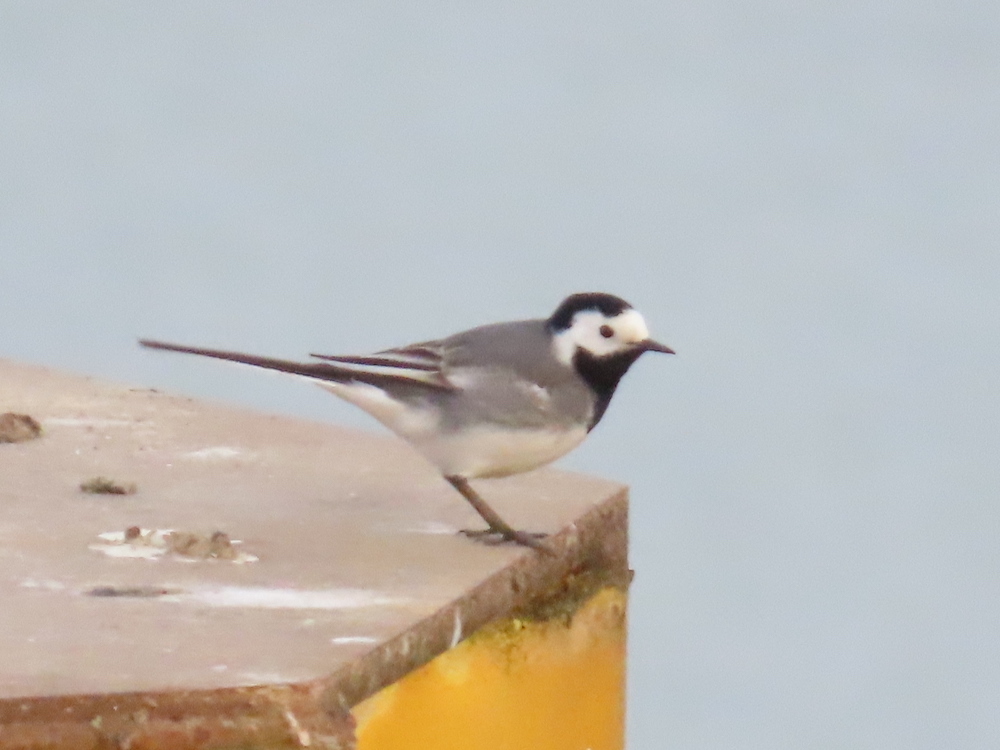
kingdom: Animalia
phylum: Chordata
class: Aves
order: Passeriformes
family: Motacillidae
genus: Motacilla
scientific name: Motacilla alba
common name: White wagtail
